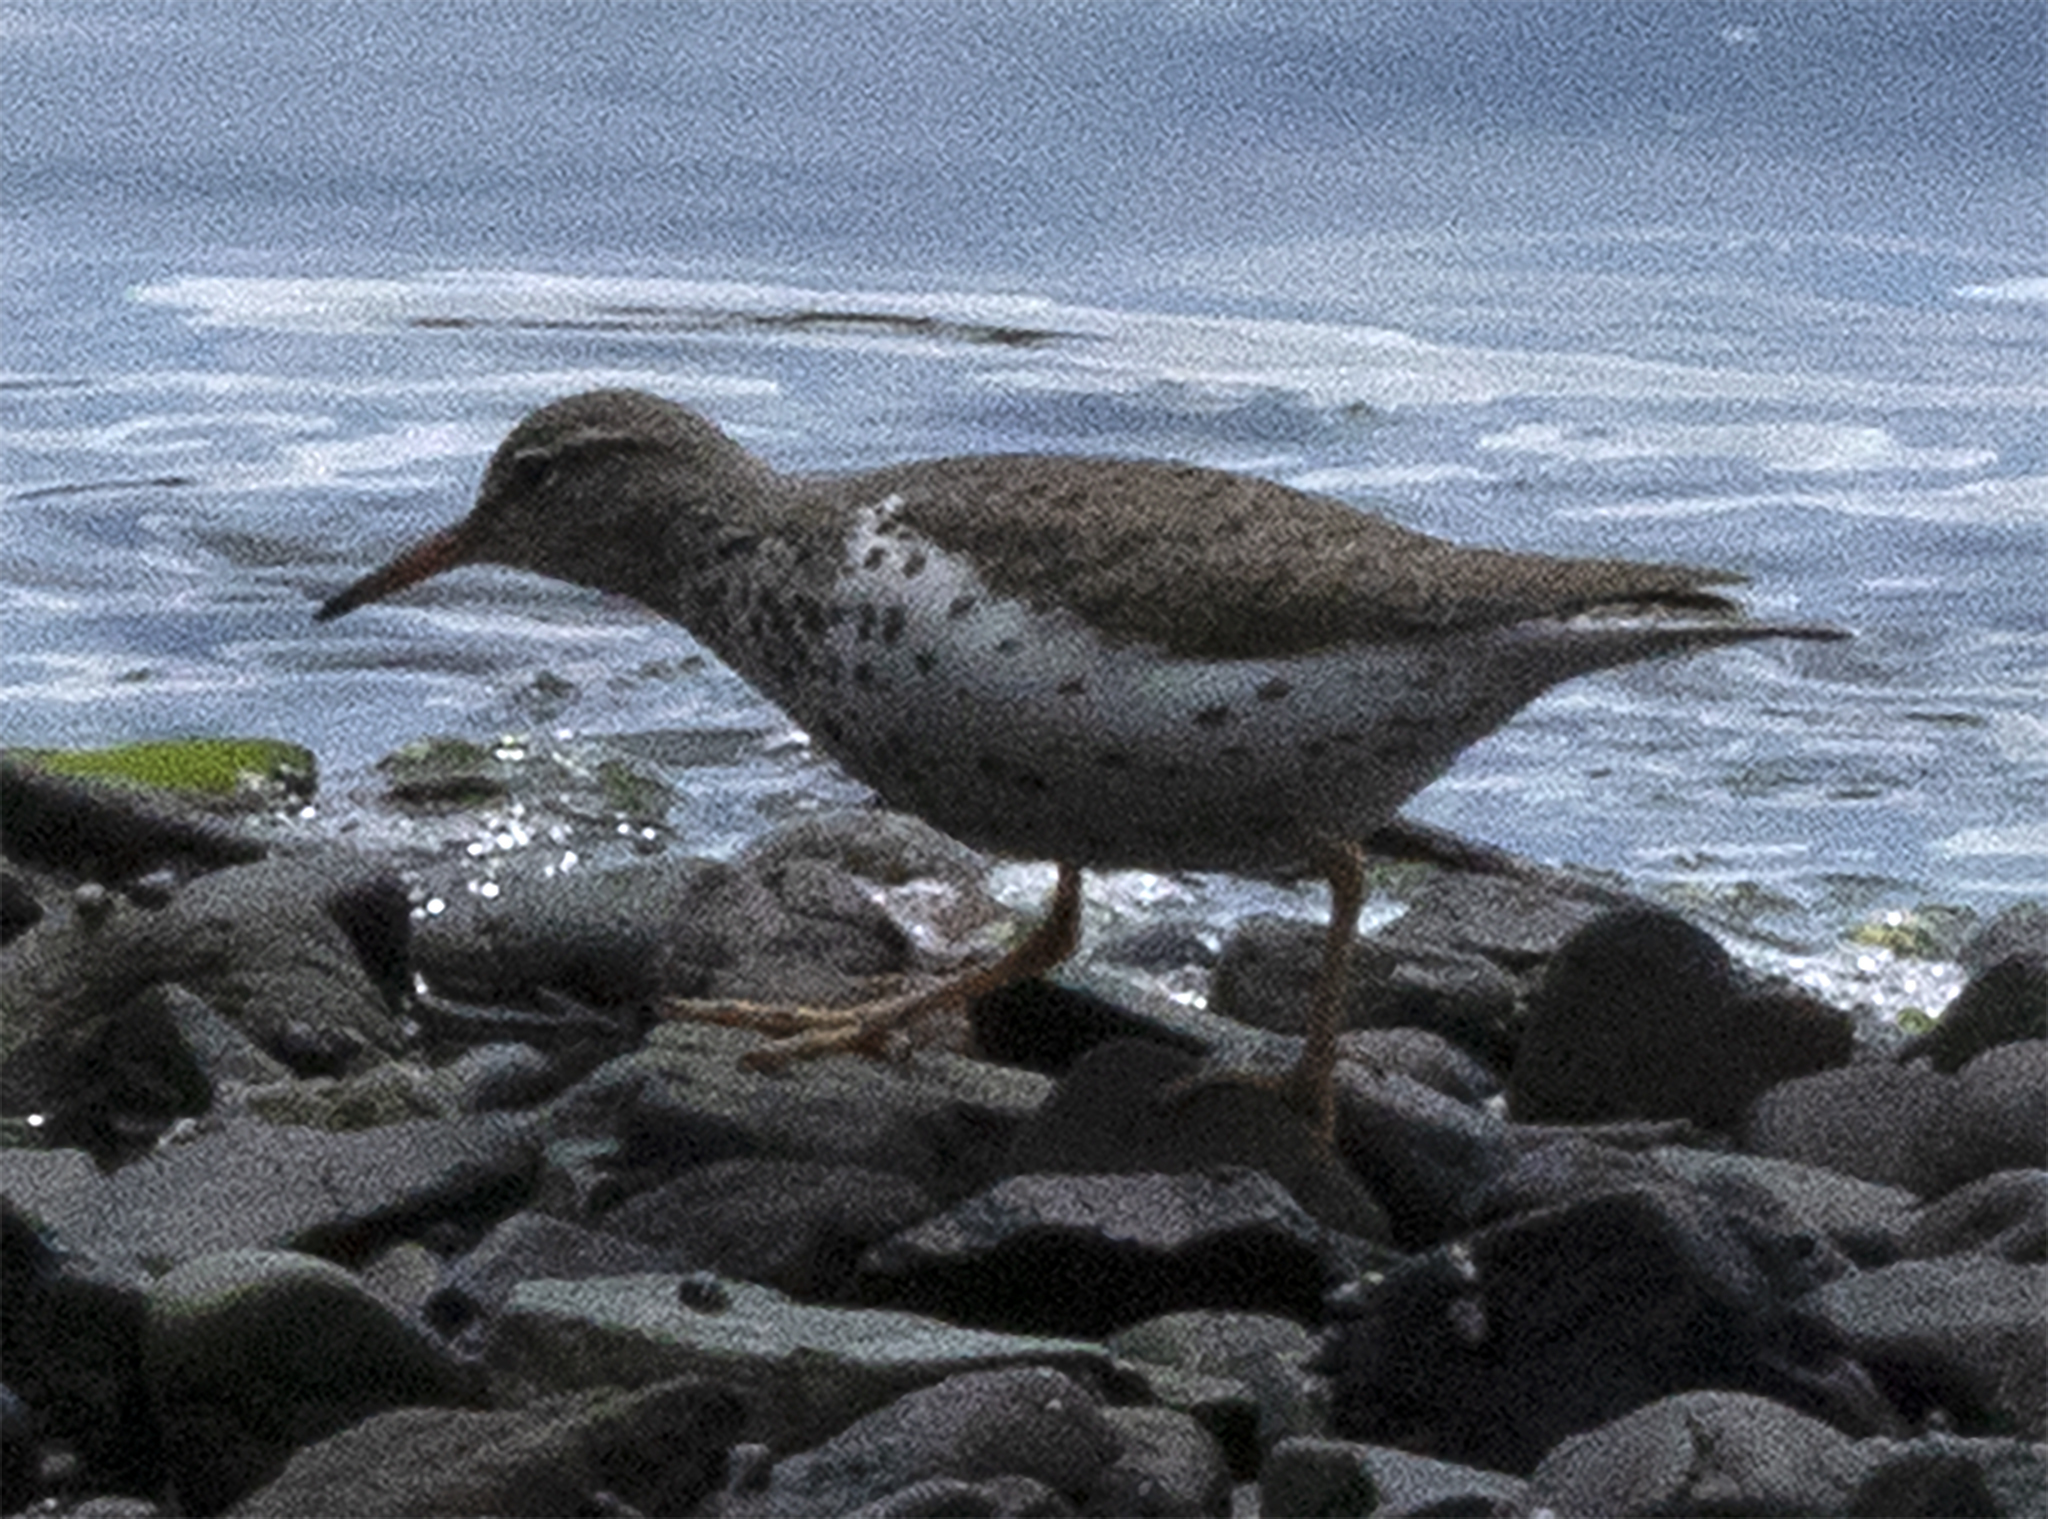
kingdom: Animalia
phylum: Chordata
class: Aves
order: Charadriiformes
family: Scolopacidae
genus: Actitis
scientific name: Actitis macularius
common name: Spotted sandpiper
